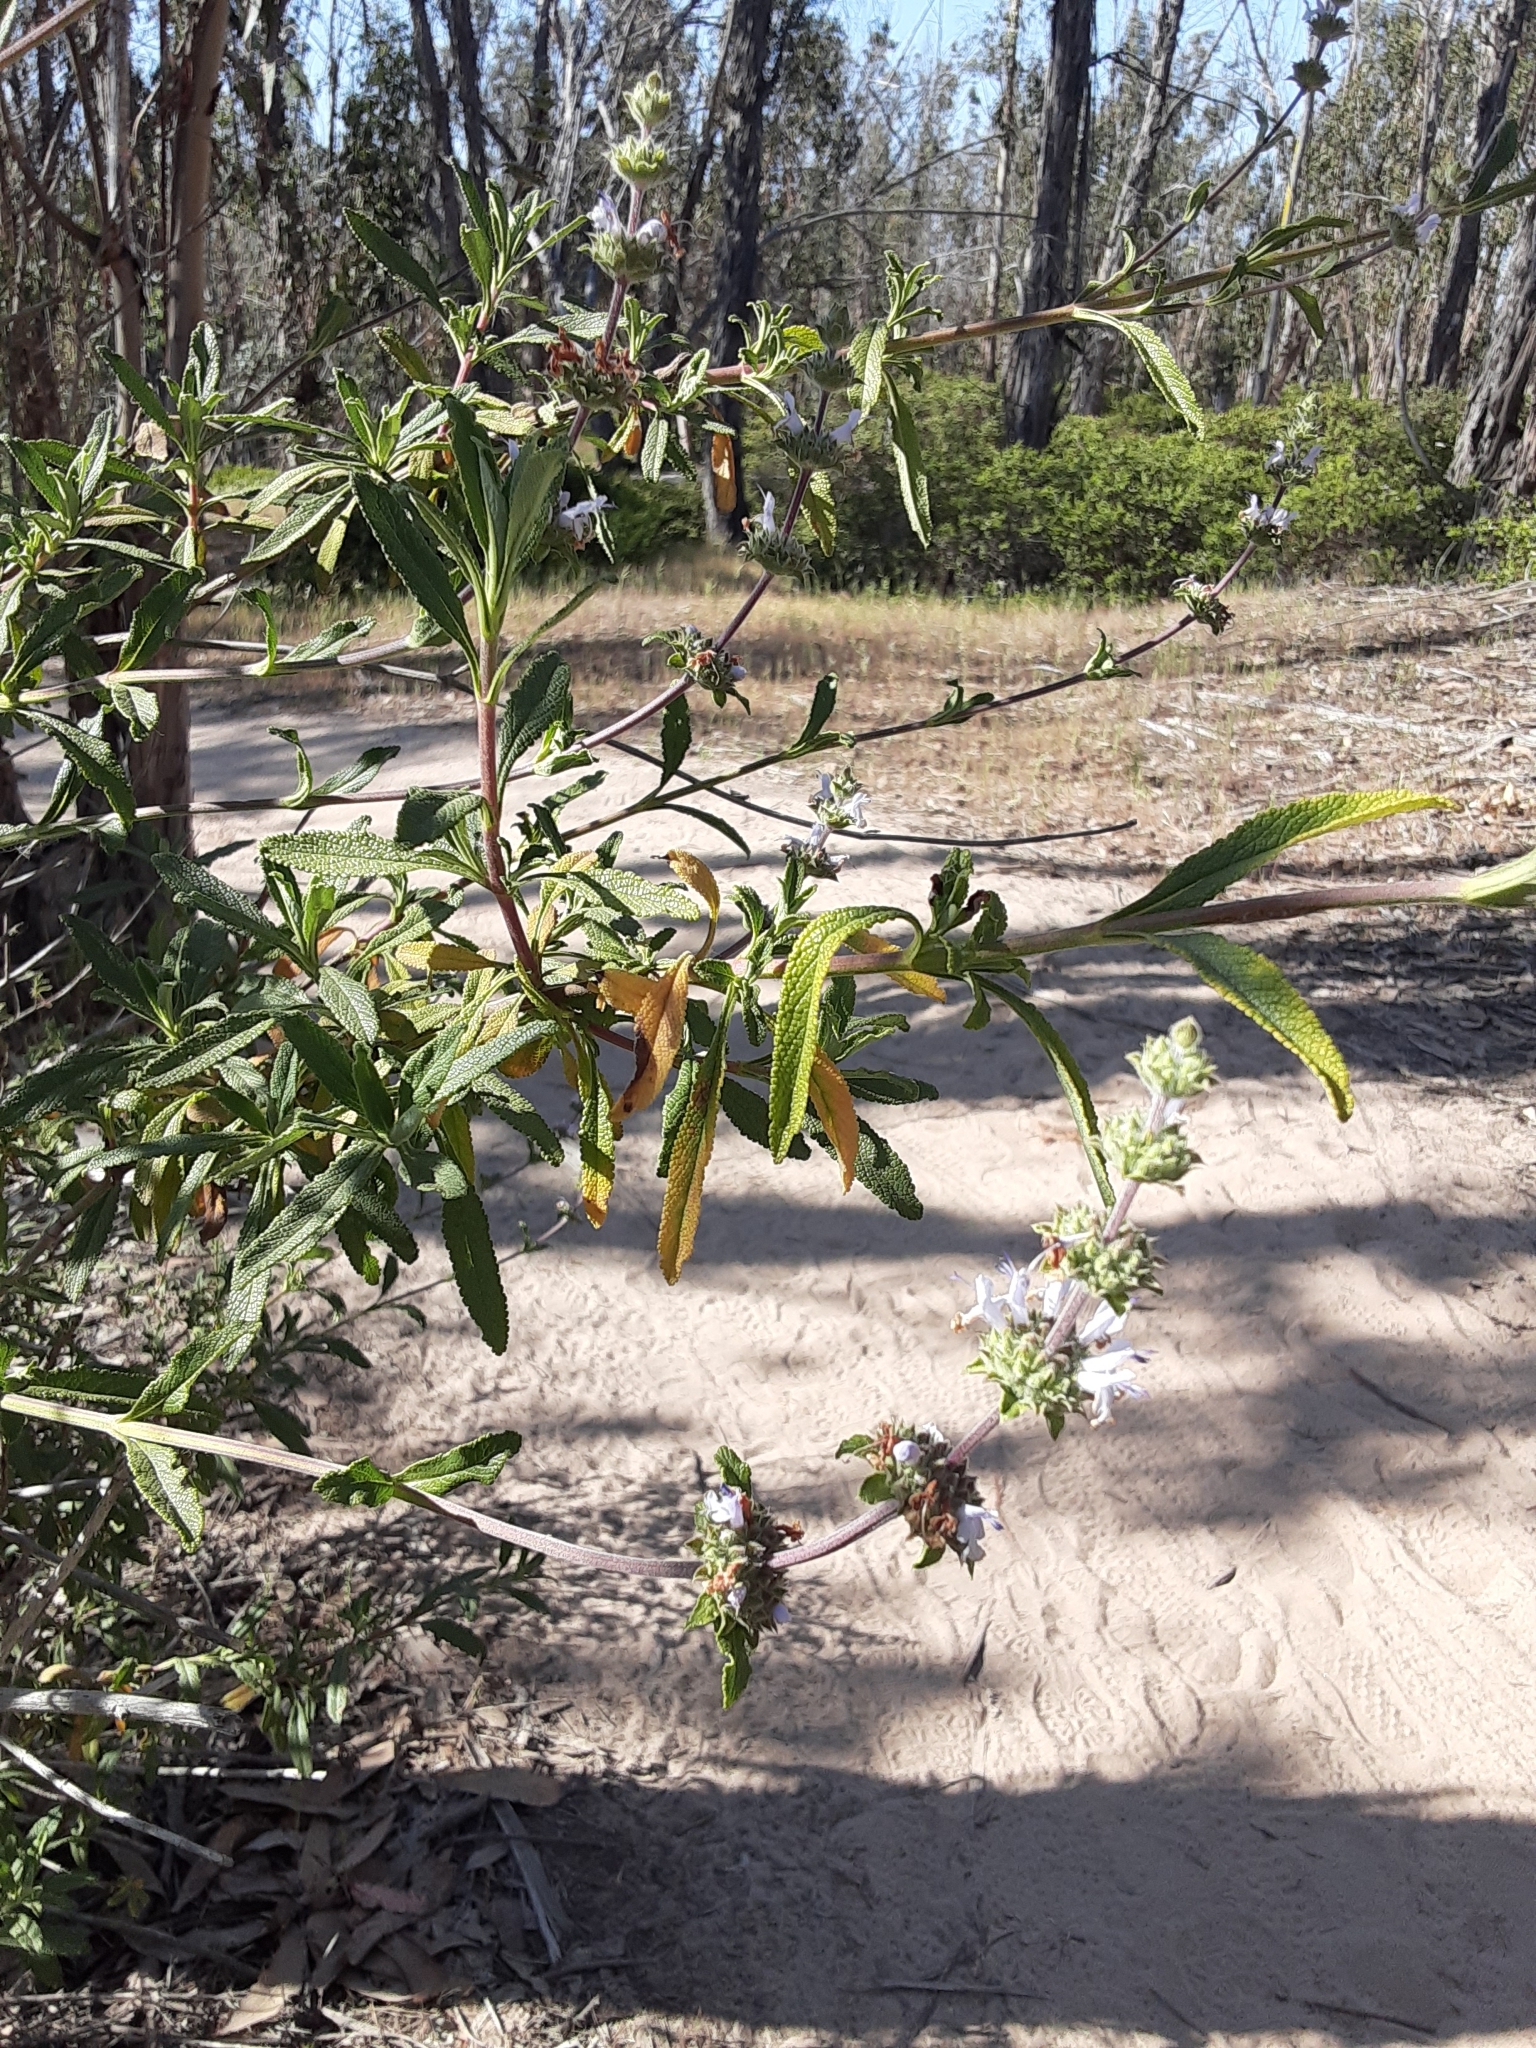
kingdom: Plantae
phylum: Tracheophyta
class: Magnoliopsida
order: Lamiales
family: Lamiaceae
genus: Salvia
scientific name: Salvia mellifera
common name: Black sage
